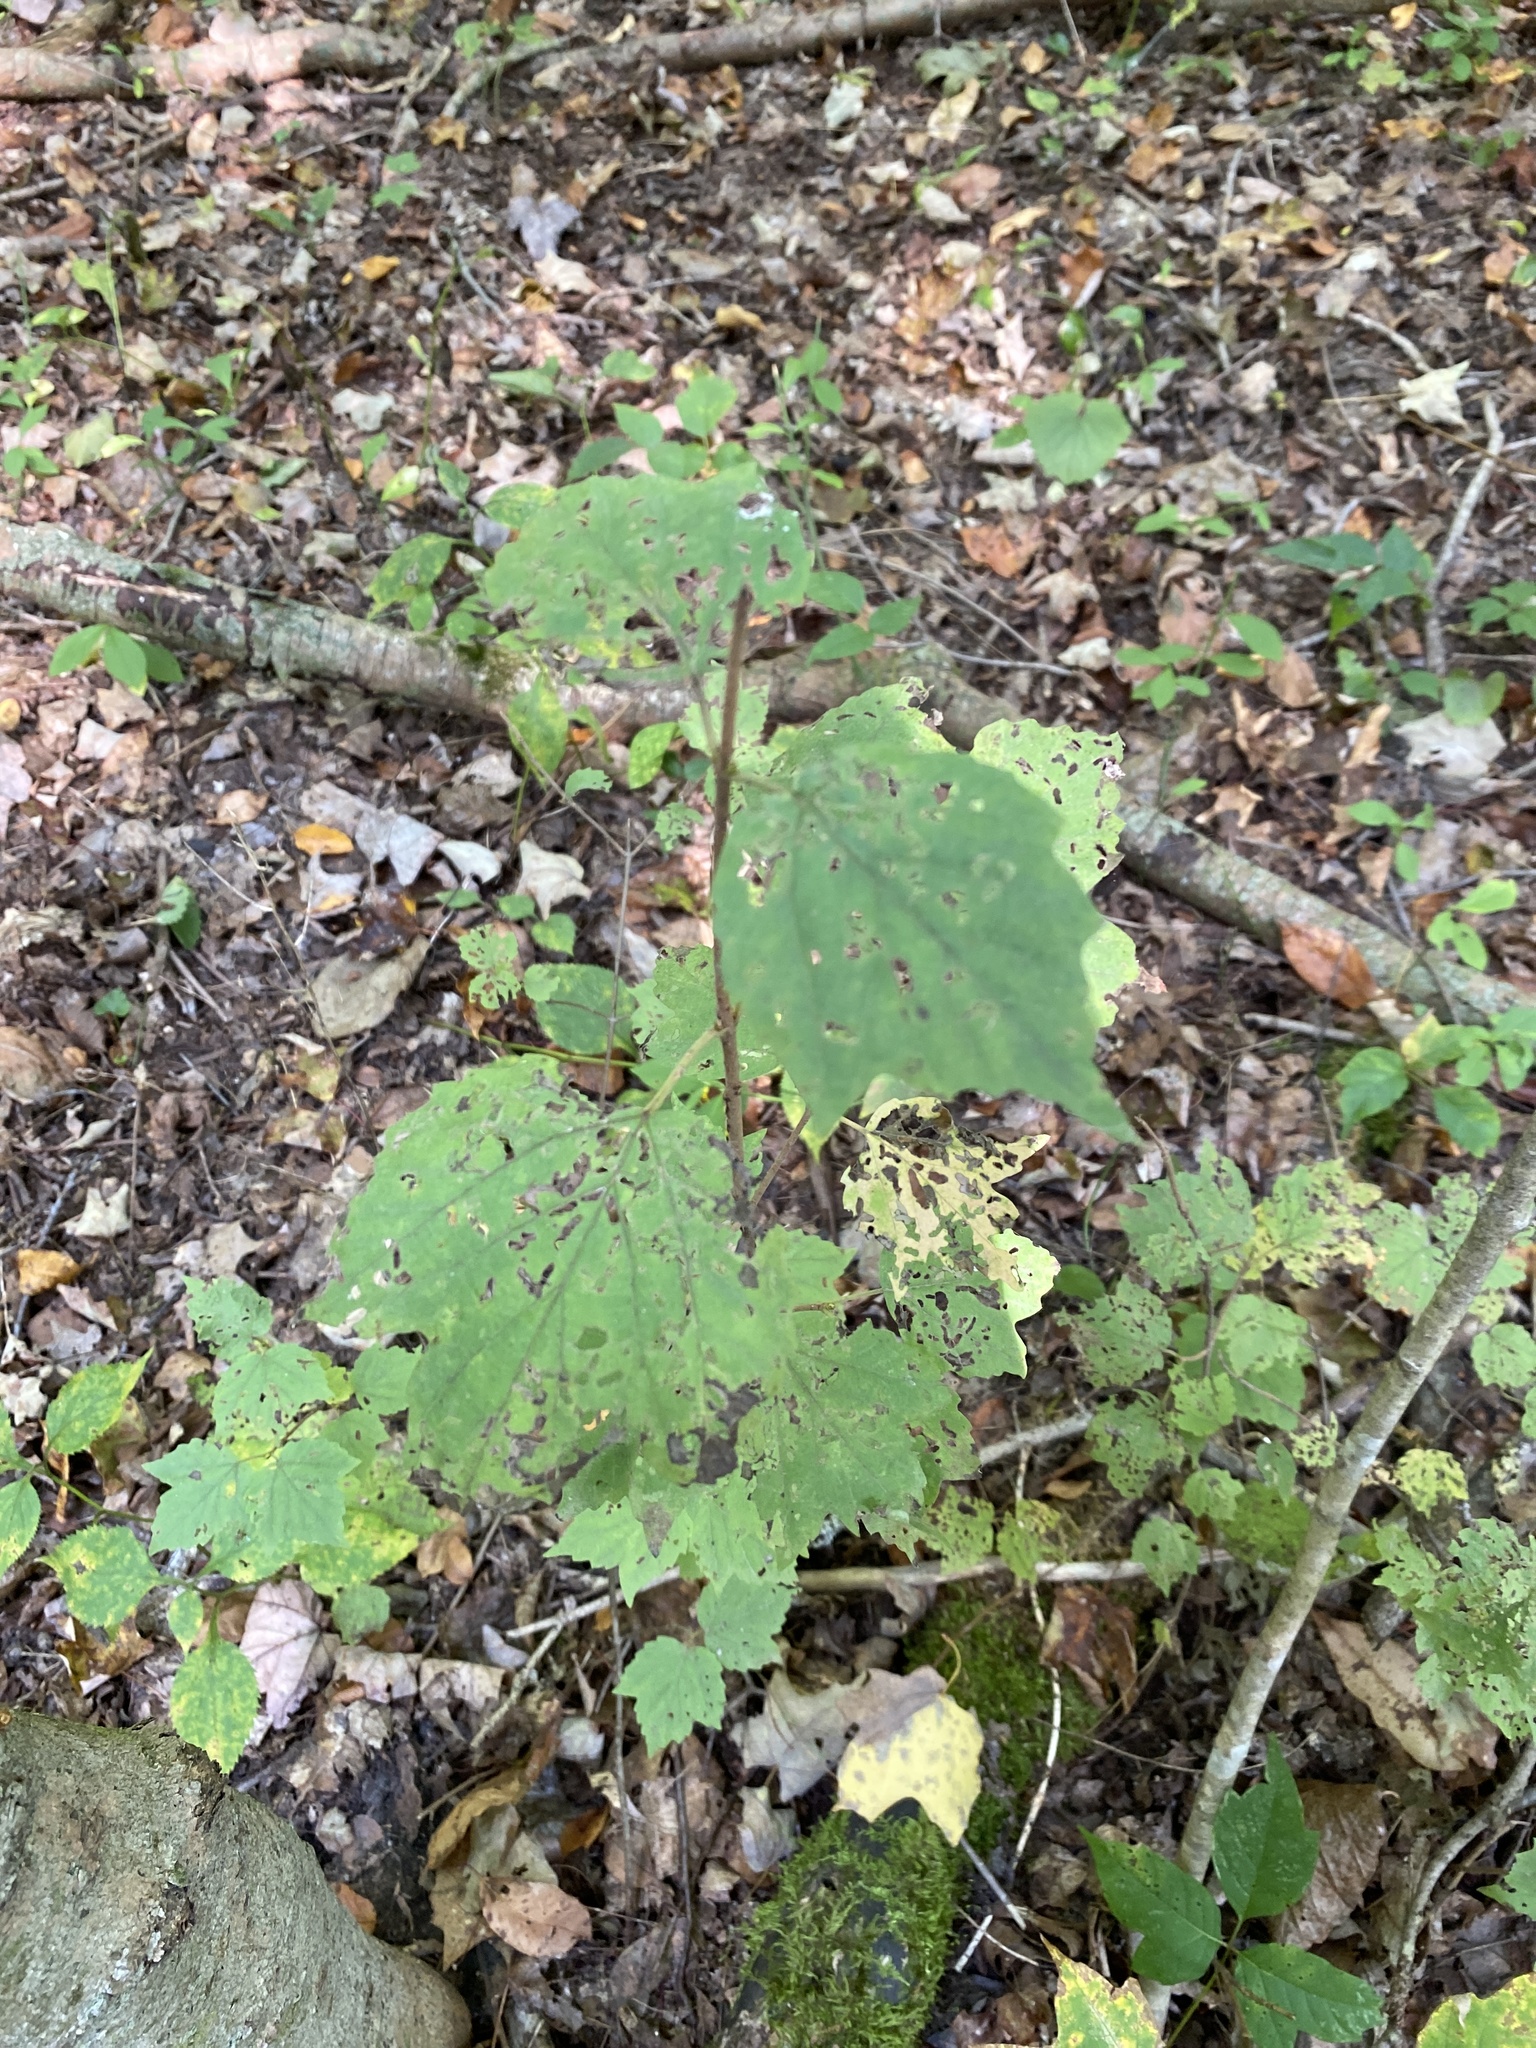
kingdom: Plantae
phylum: Tracheophyta
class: Magnoliopsida
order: Dipsacales
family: Viburnaceae
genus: Viburnum
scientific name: Viburnum acerifolium
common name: Dockmackie
